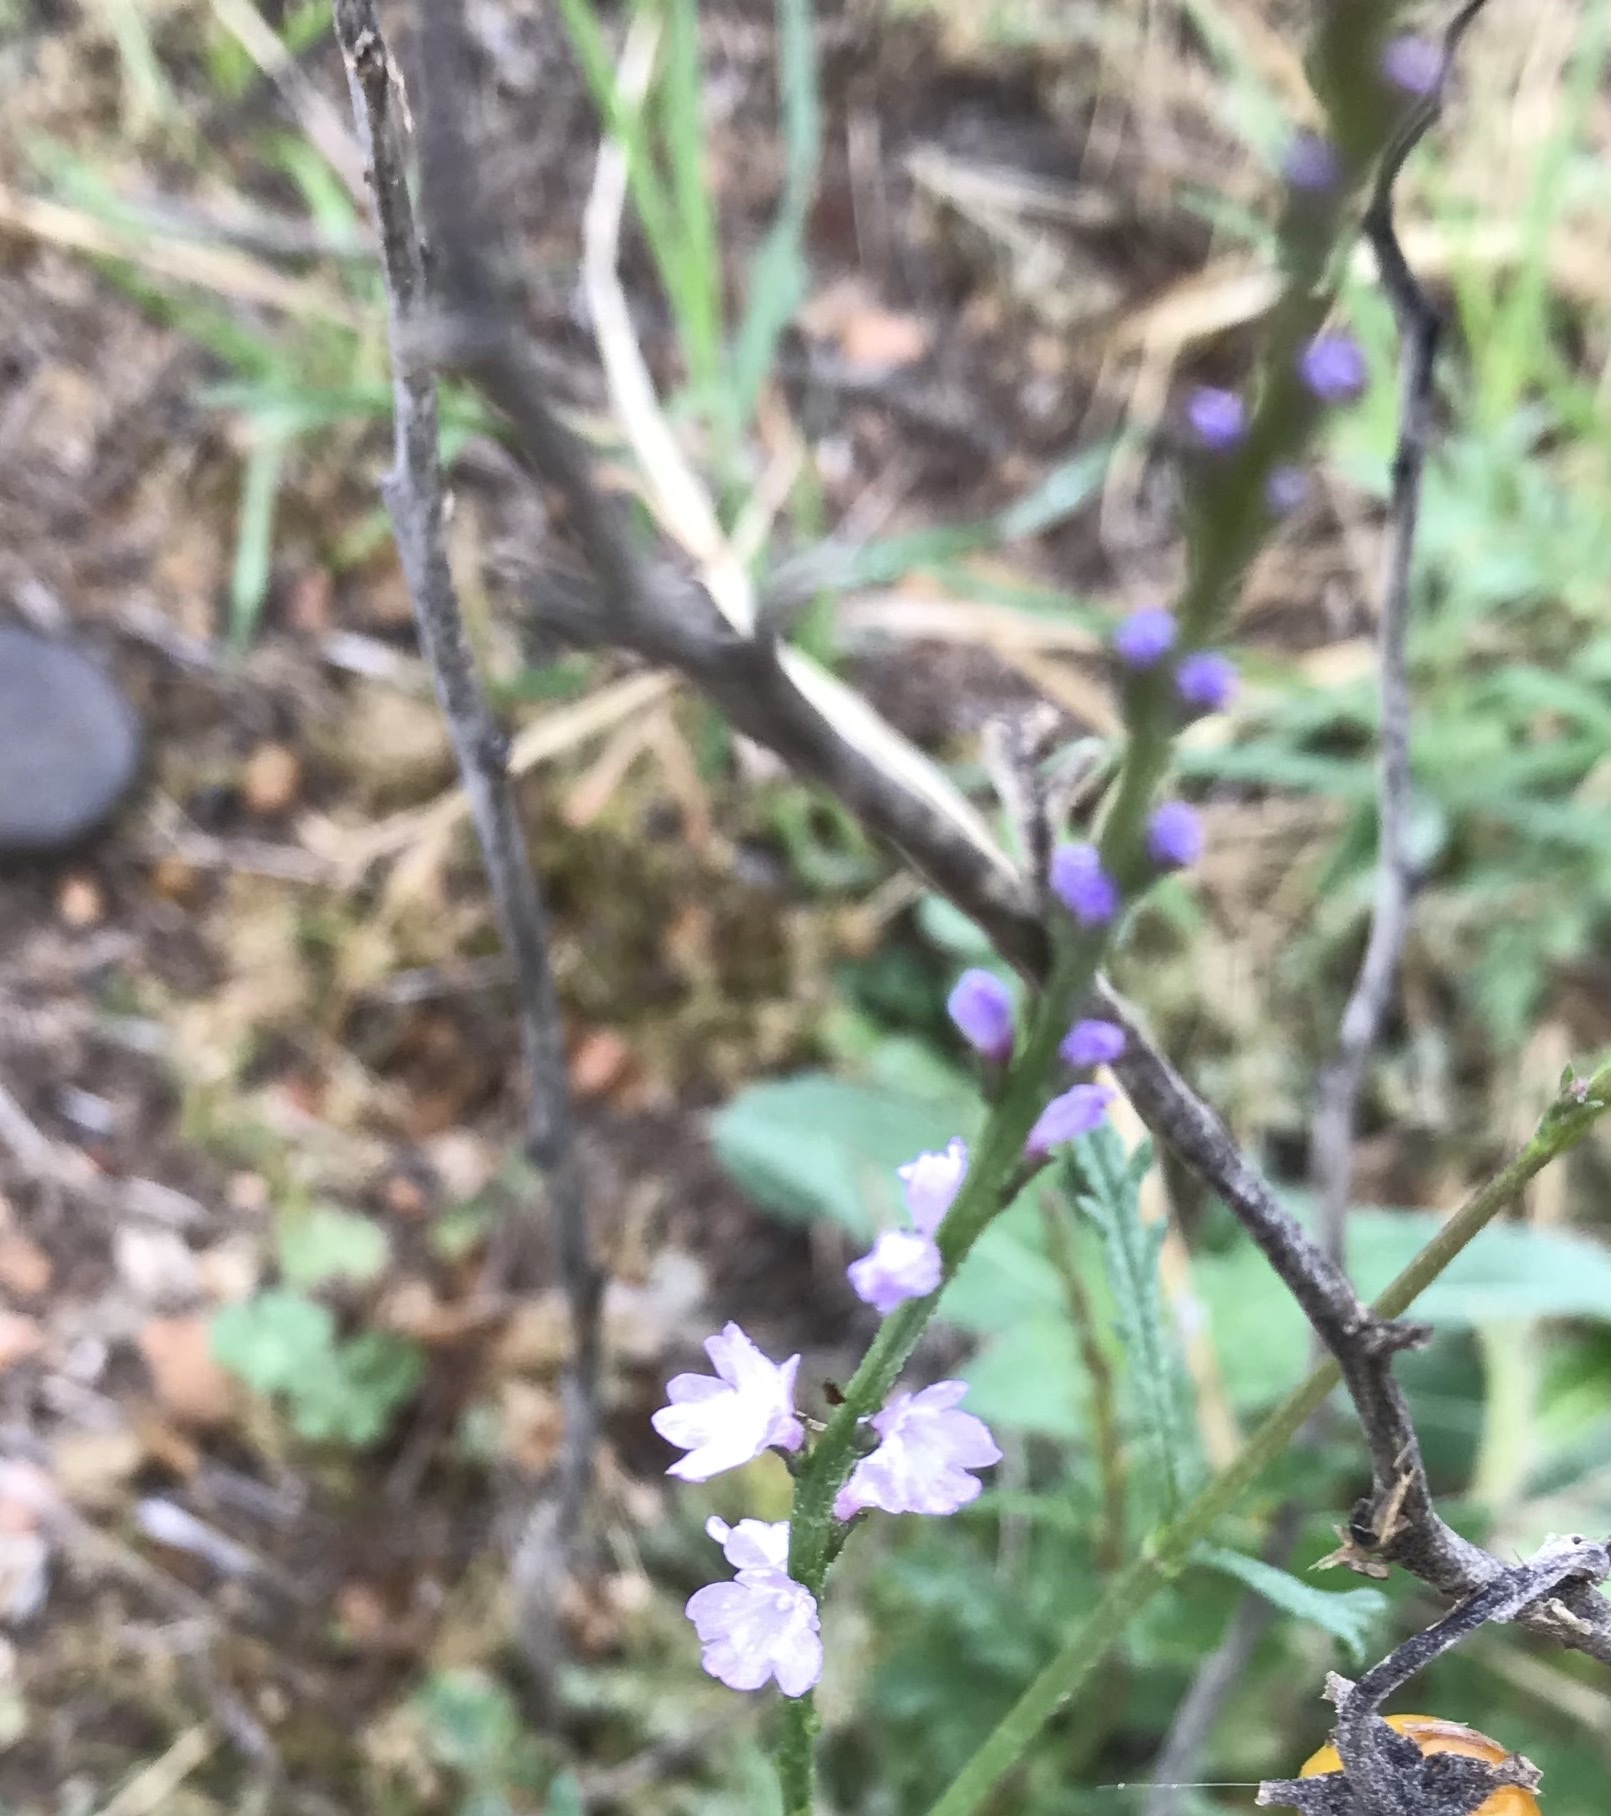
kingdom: Plantae
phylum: Tracheophyta
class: Magnoliopsida
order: Lamiales
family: Verbenaceae
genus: Verbena
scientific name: Verbena halei
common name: Texas vervain
